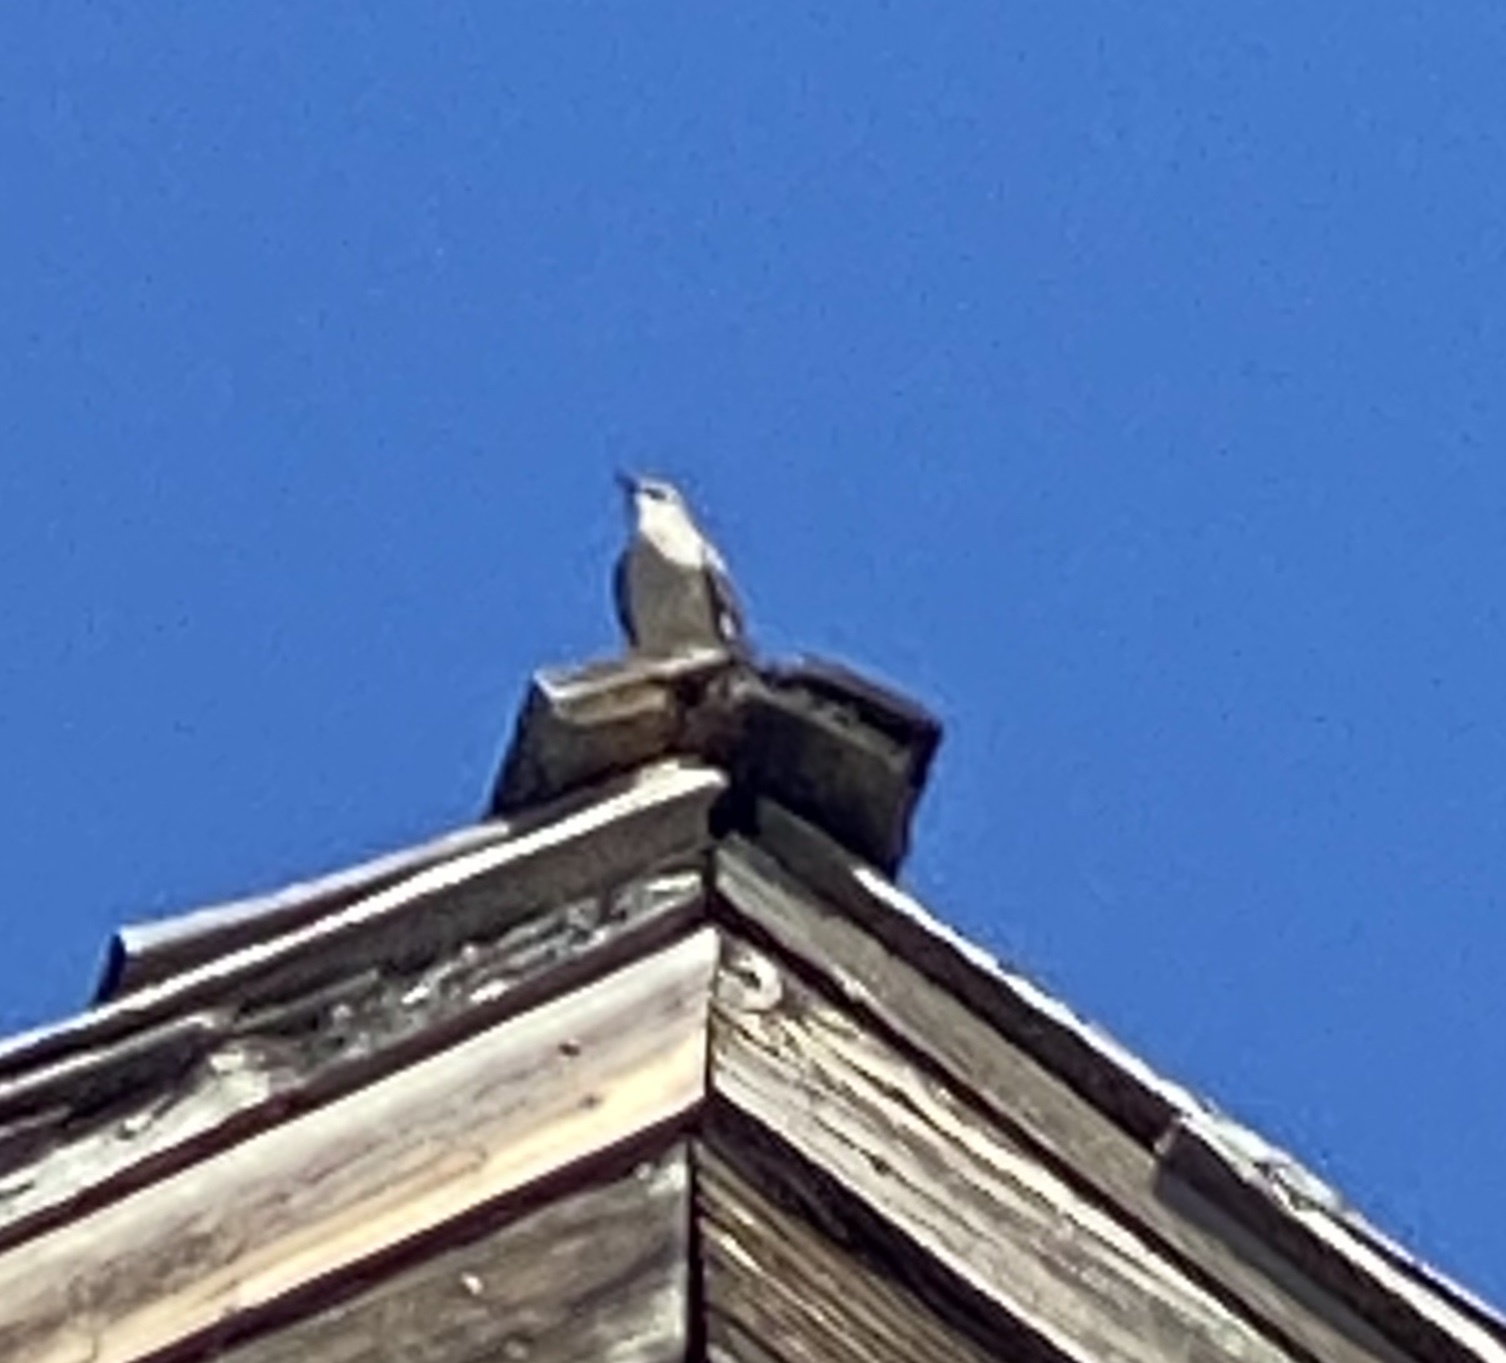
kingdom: Animalia
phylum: Chordata
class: Aves
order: Passeriformes
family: Mimidae
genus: Mimus
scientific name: Mimus polyglottos
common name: Northern mockingbird
